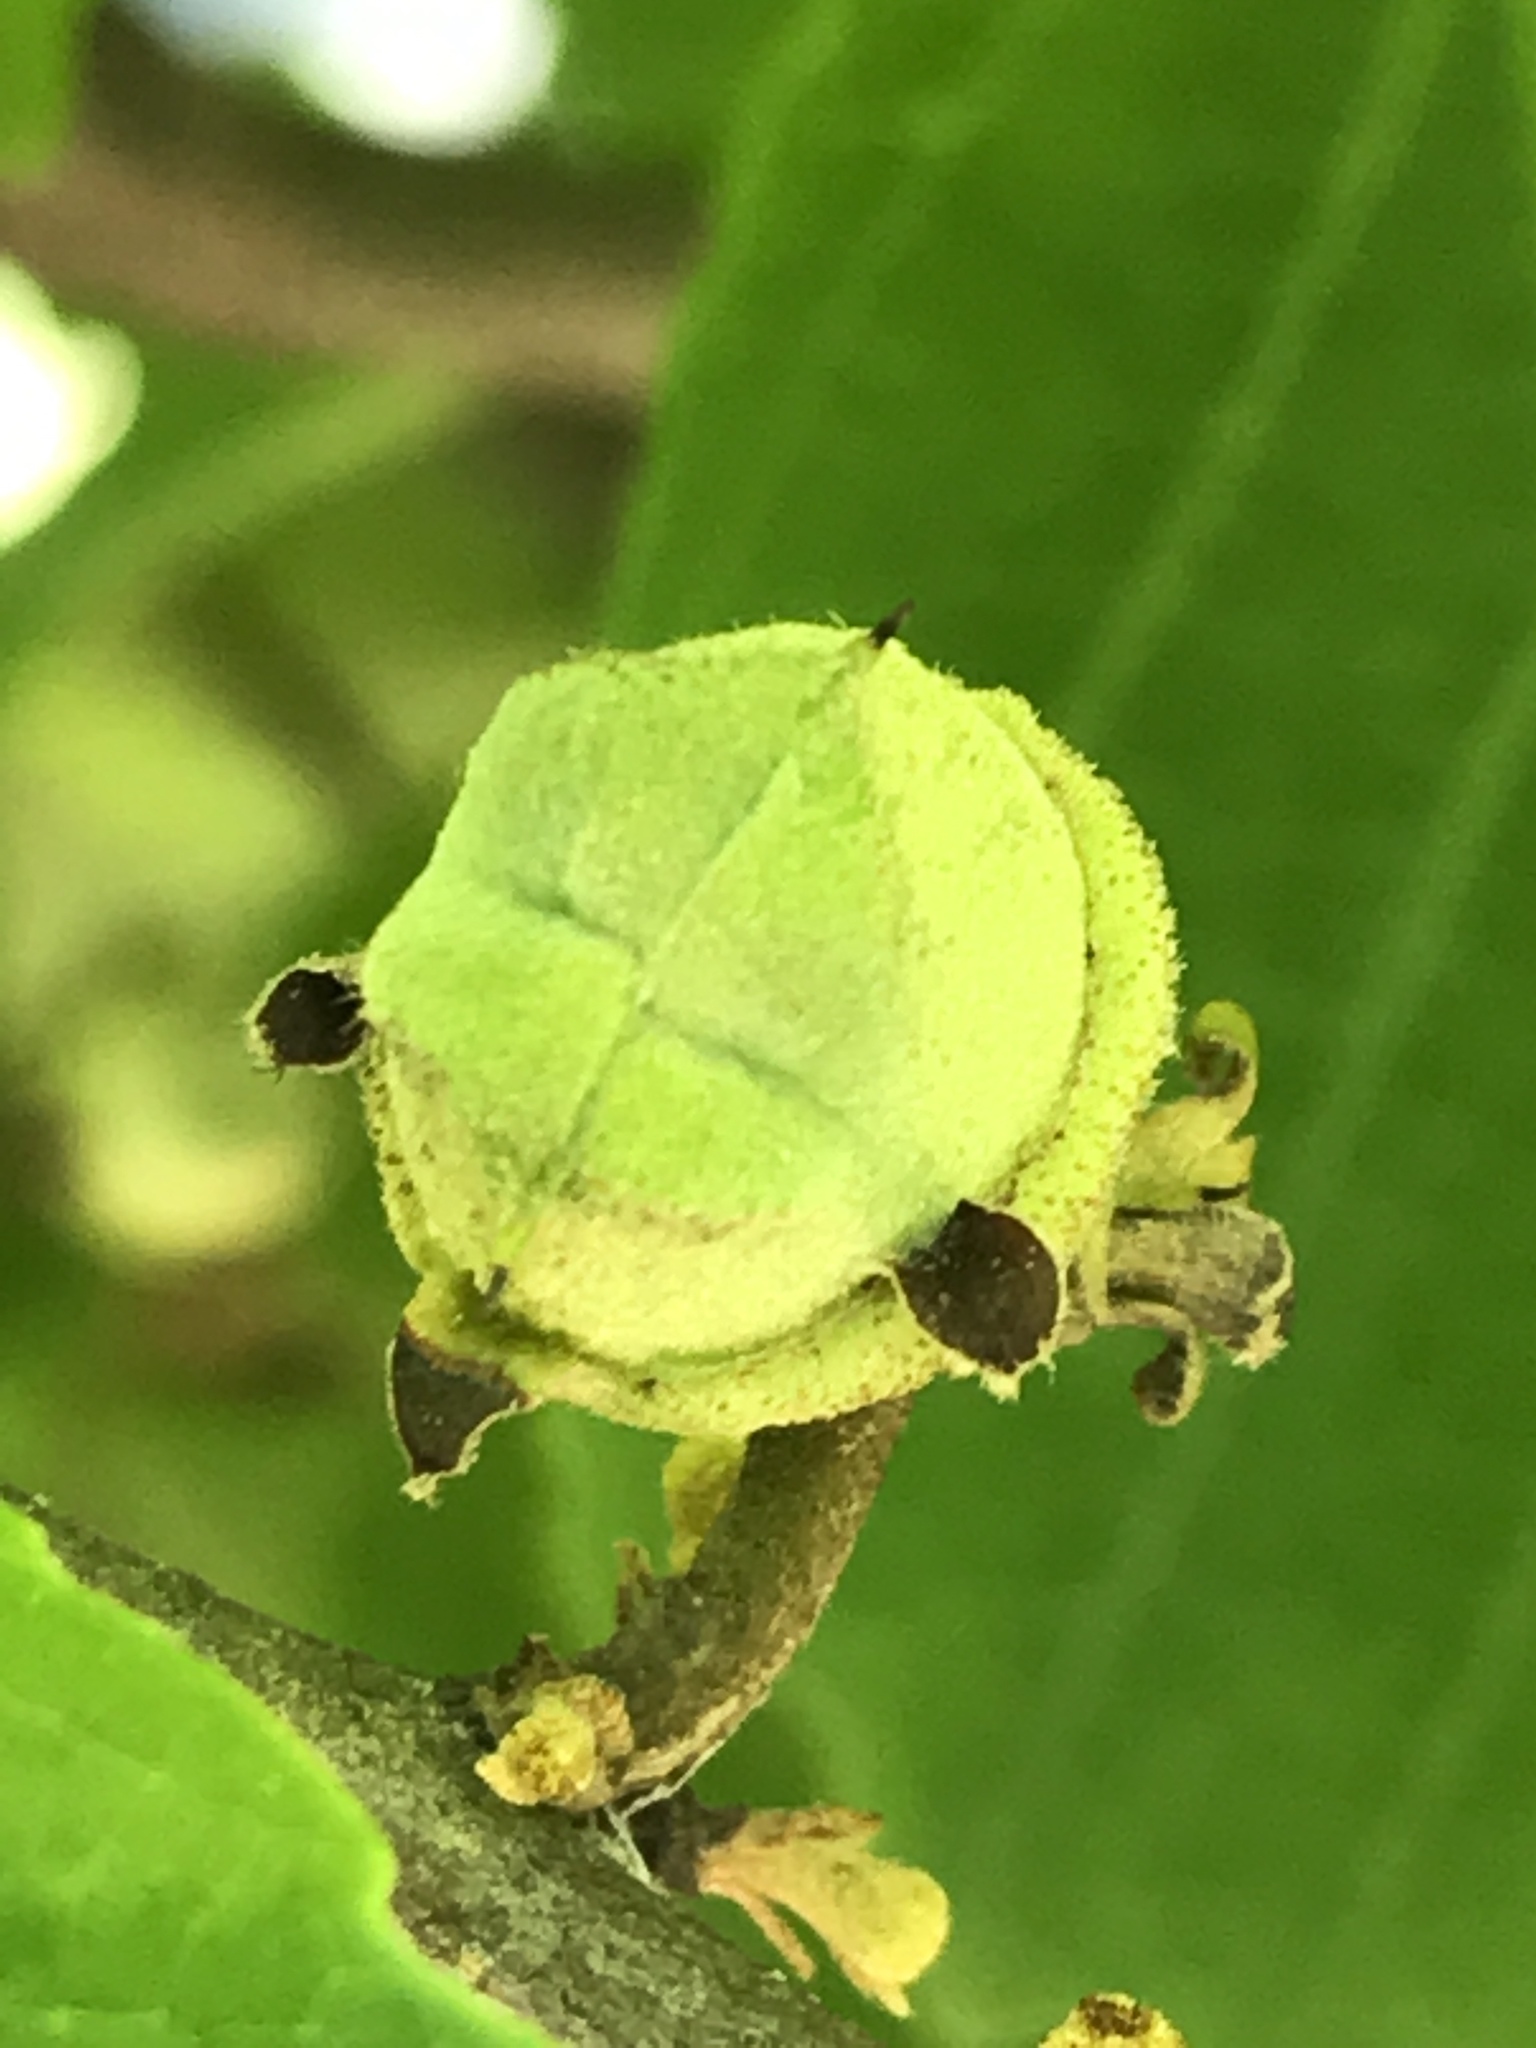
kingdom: Plantae
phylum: Tracheophyta
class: Magnoliopsida
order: Saxifragales
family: Hamamelidaceae
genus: Hamamelis
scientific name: Hamamelis virginiana
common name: Witch-hazel
